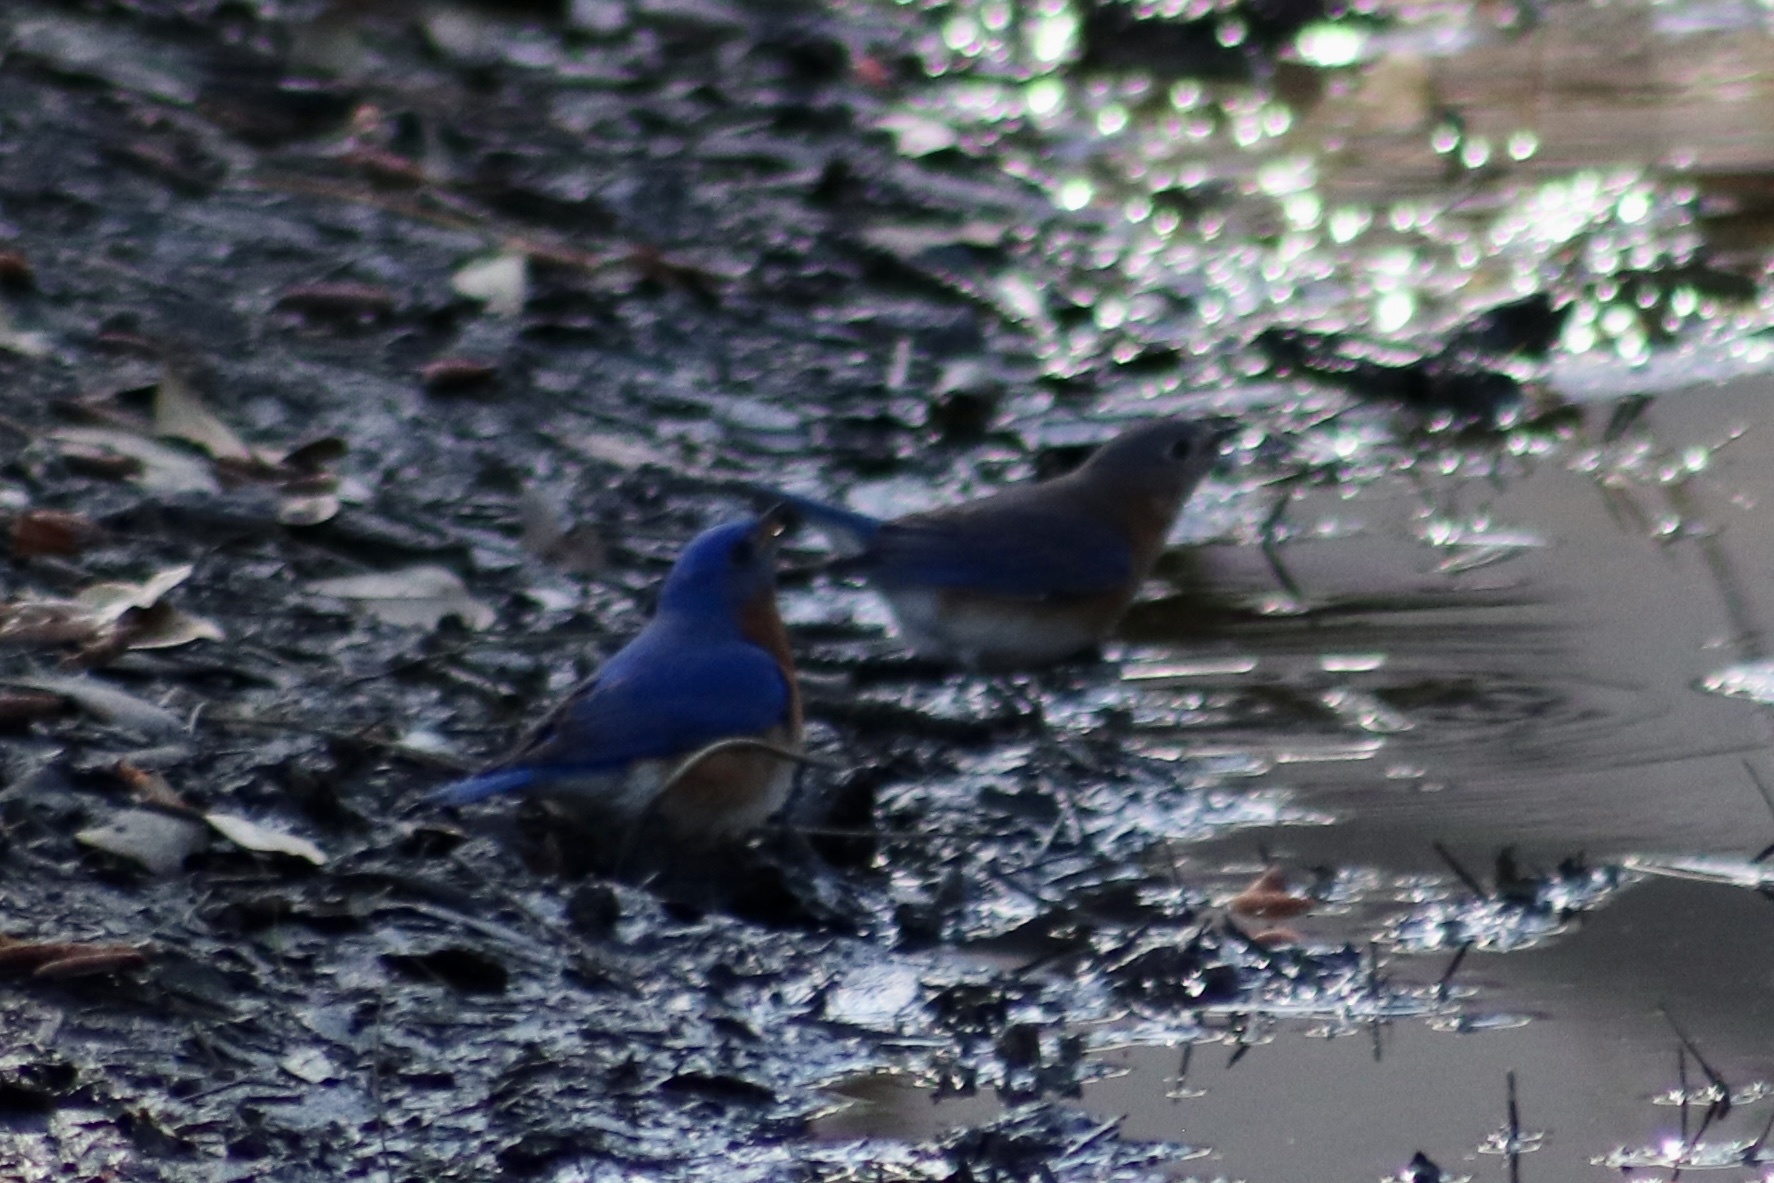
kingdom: Animalia
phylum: Chordata
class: Aves
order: Passeriformes
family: Turdidae
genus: Sialia
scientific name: Sialia sialis
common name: Eastern bluebird
